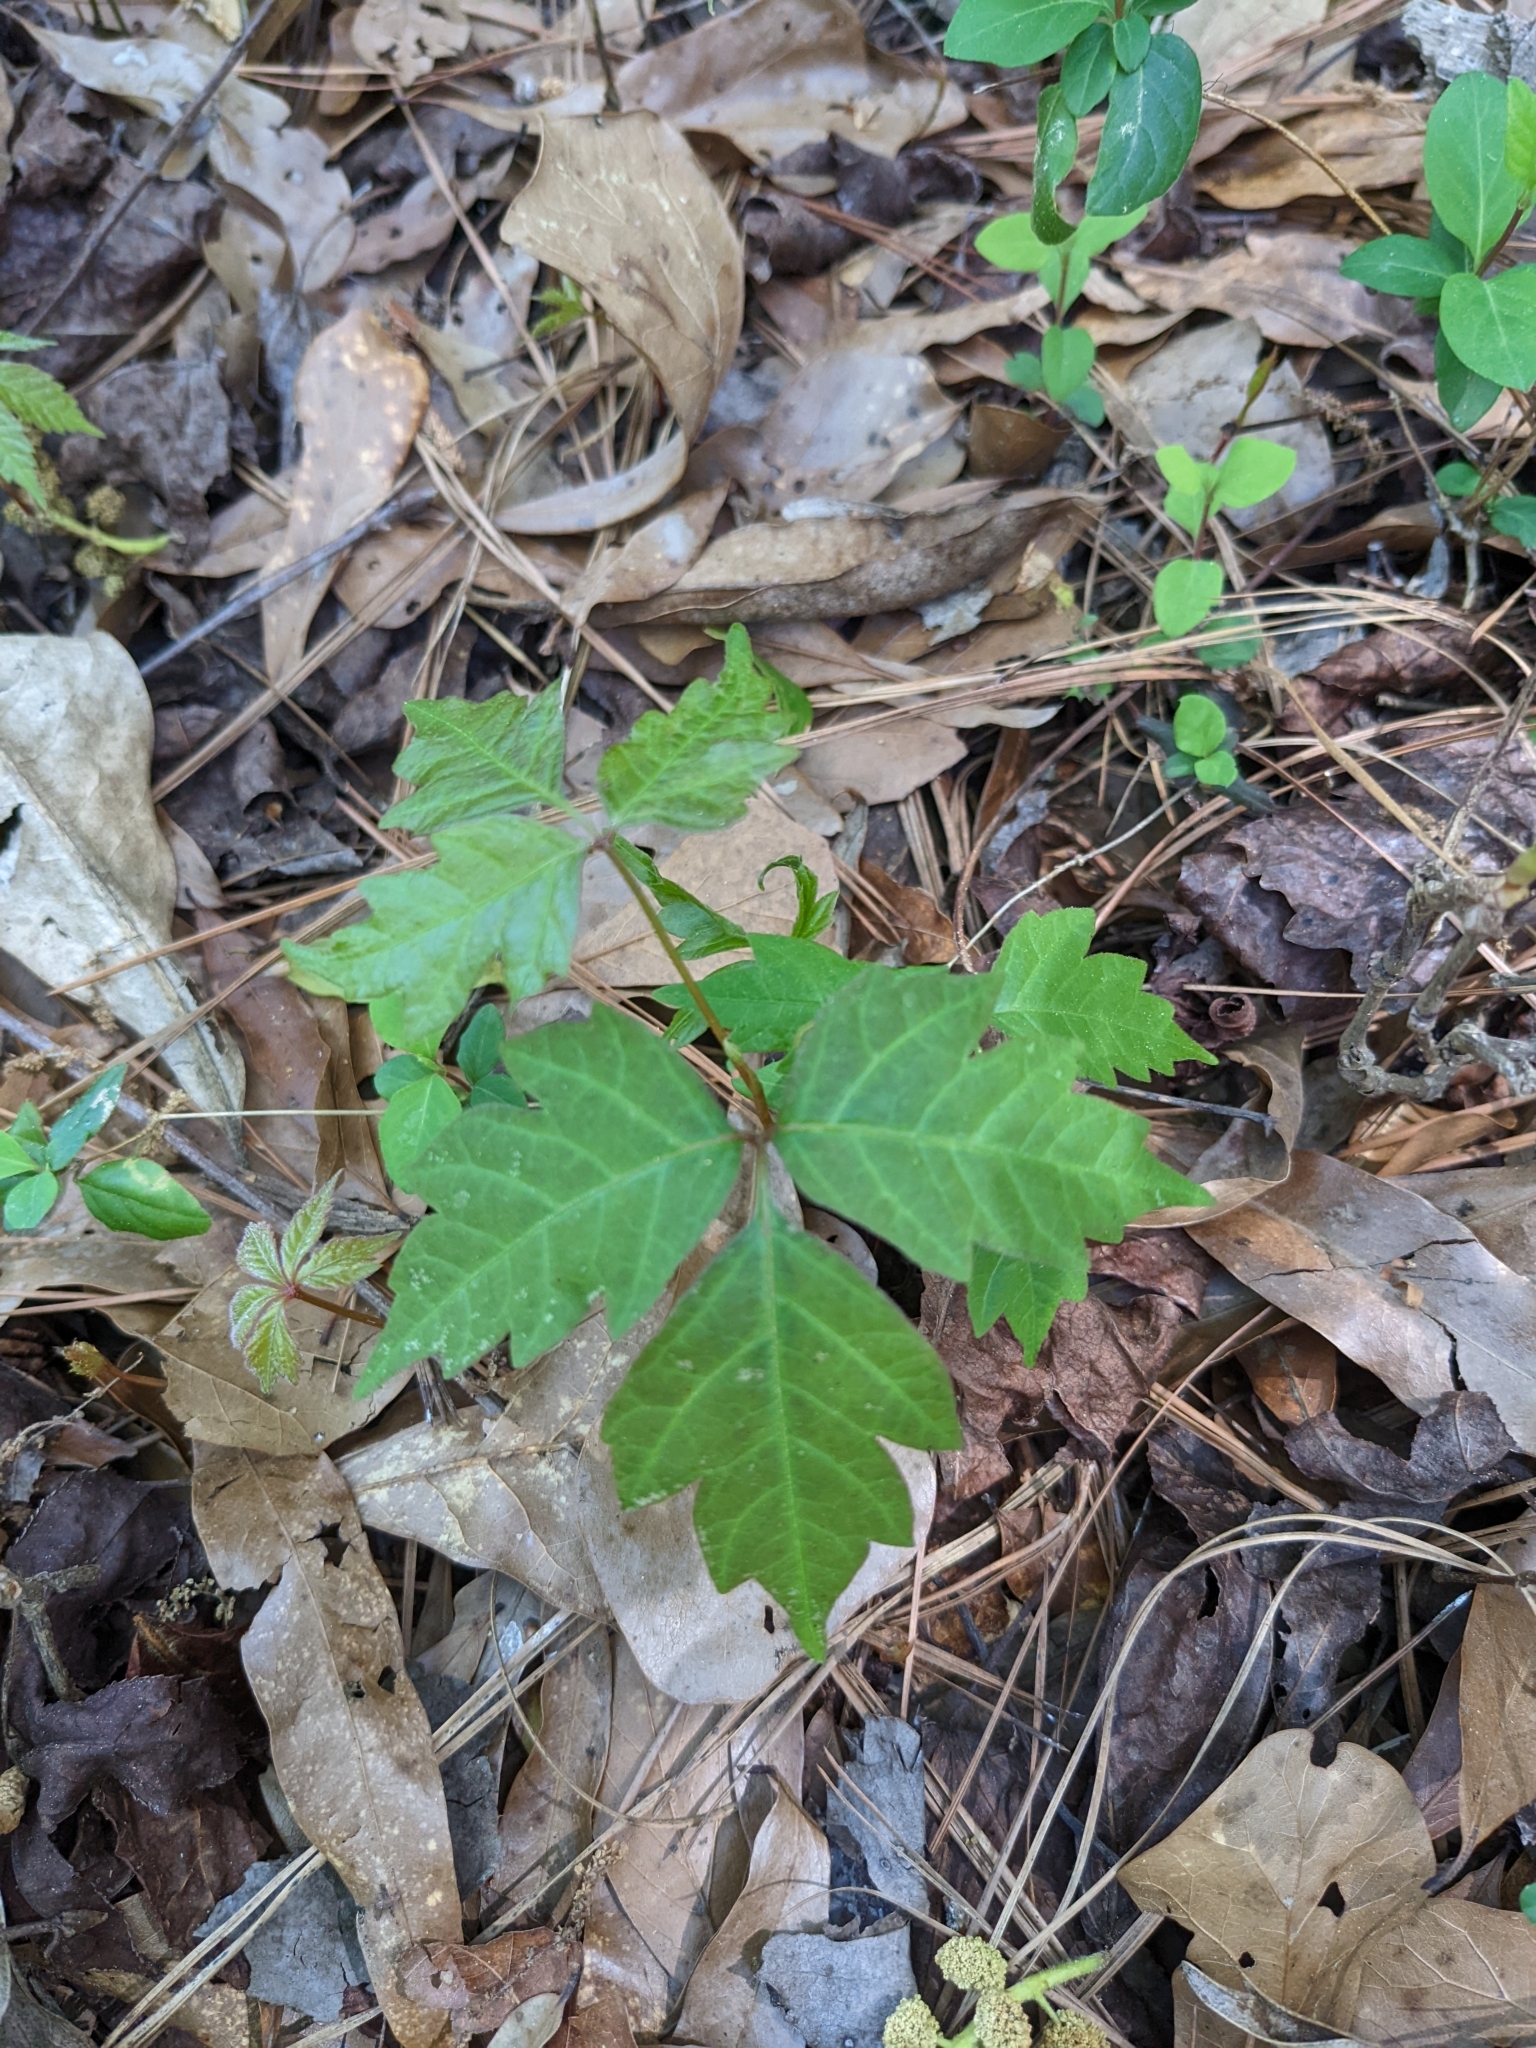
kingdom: Plantae
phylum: Tracheophyta
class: Magnoliopsida
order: Sapindales
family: Anacardiaceae
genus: Toxicodendron
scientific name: Toxicodendron radicans
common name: Poison ivy
